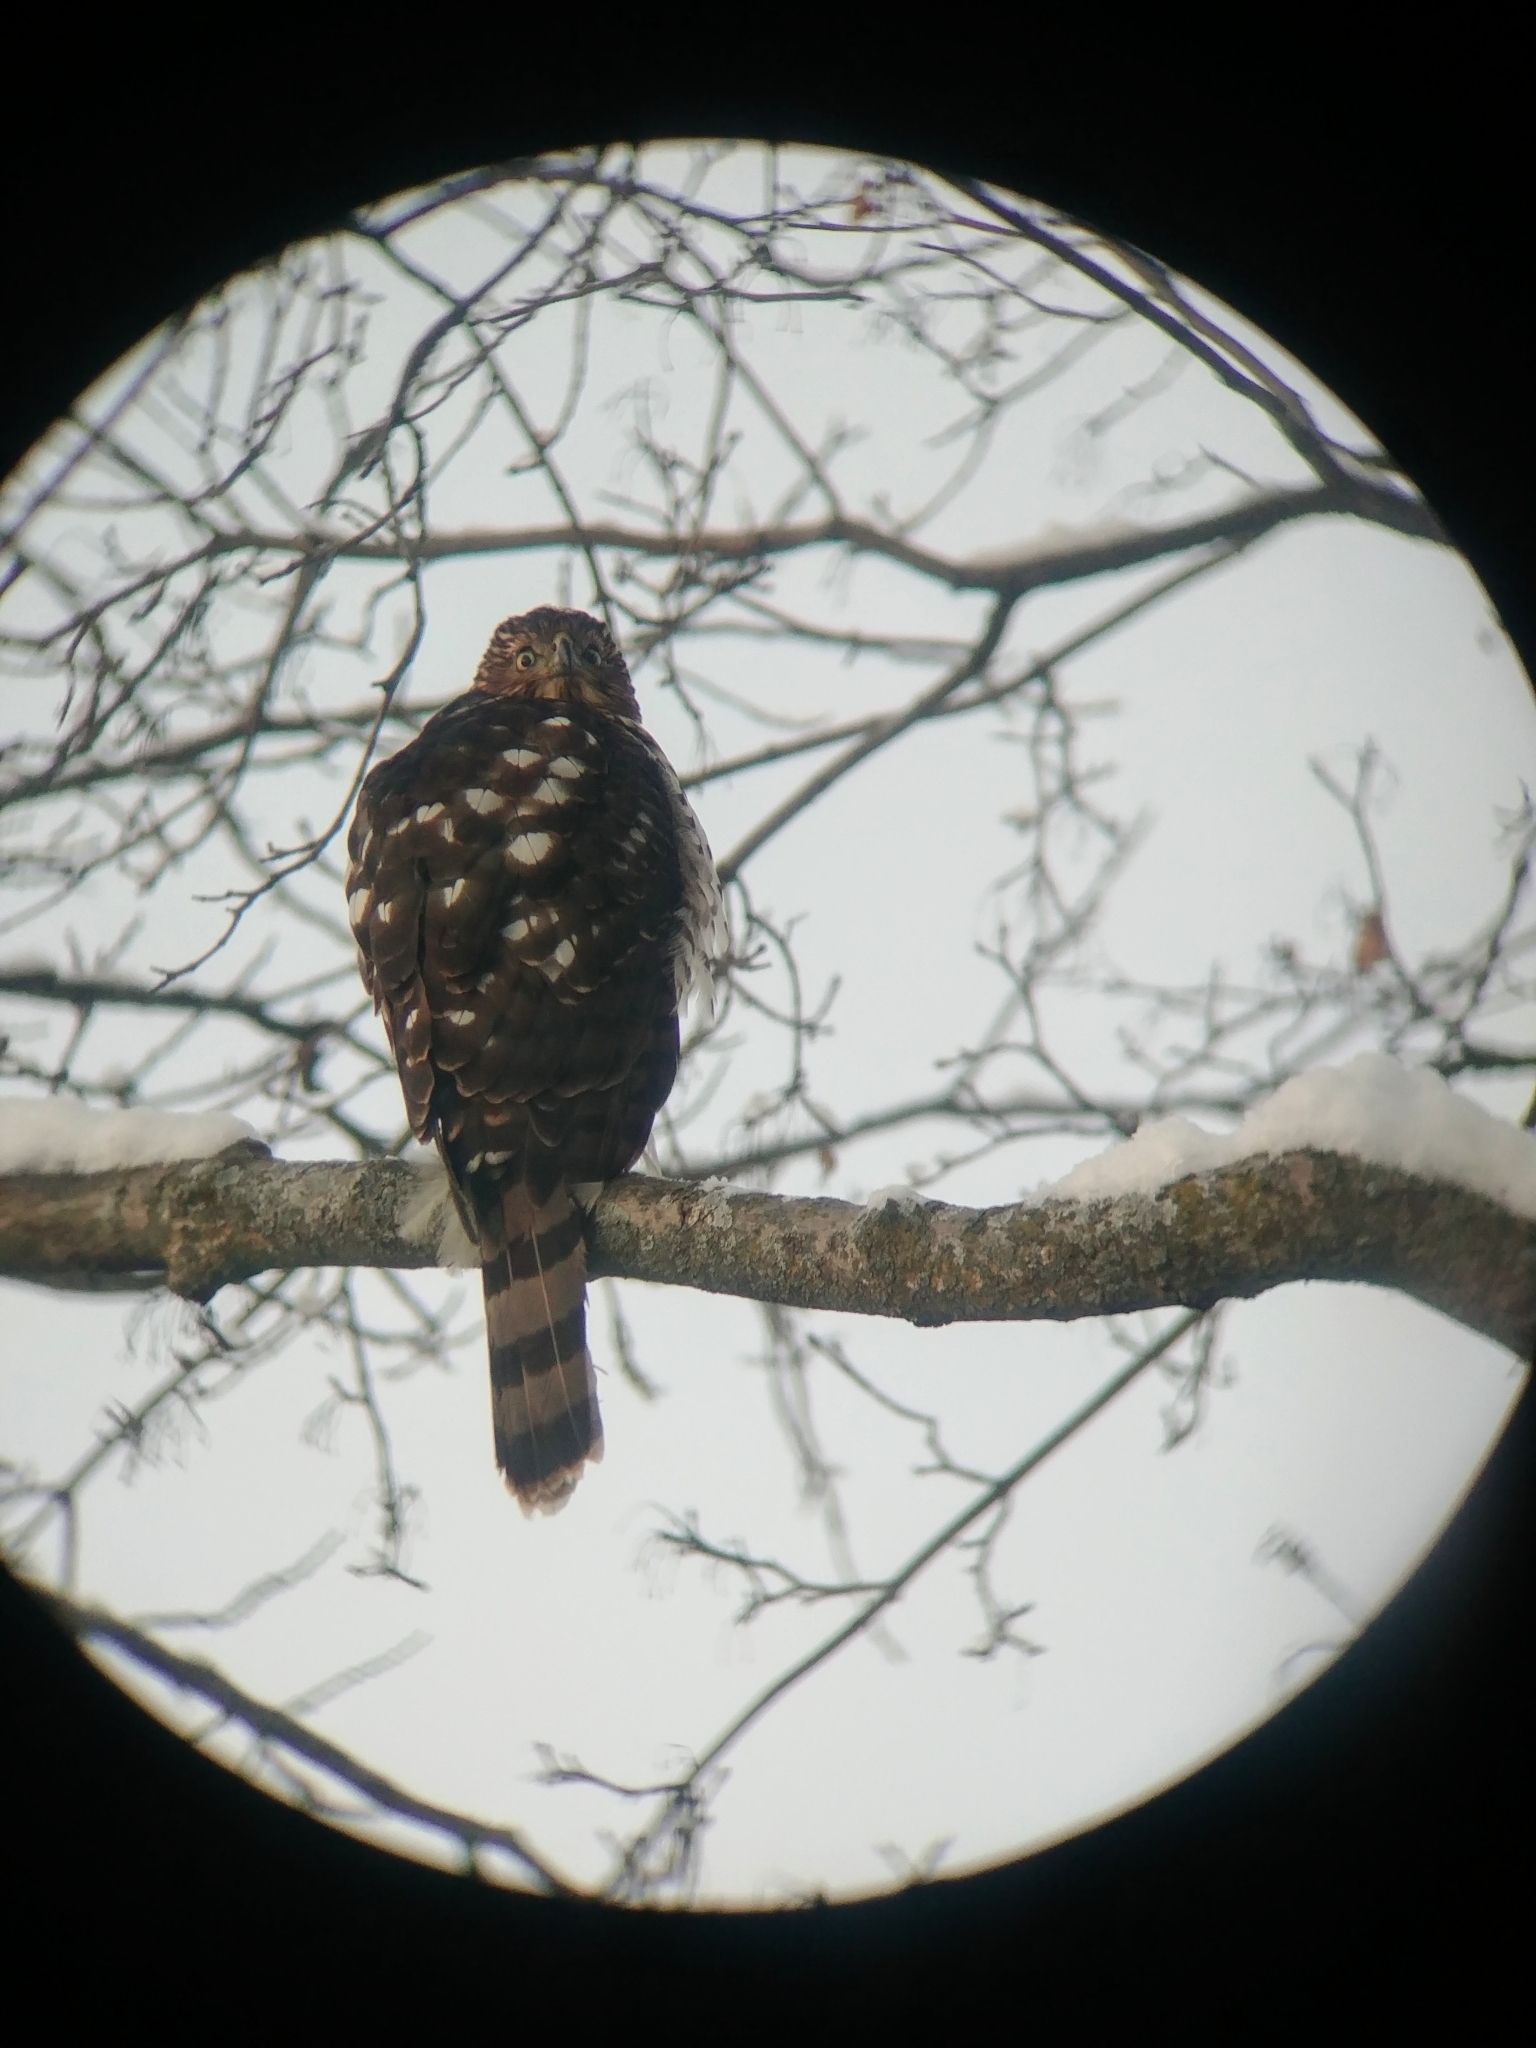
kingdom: Animalia
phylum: Chordata
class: Aves
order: Accipitriformes
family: Accipitridae
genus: Accipiter
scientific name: Accipiter cooperii
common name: Cooper's hawk
